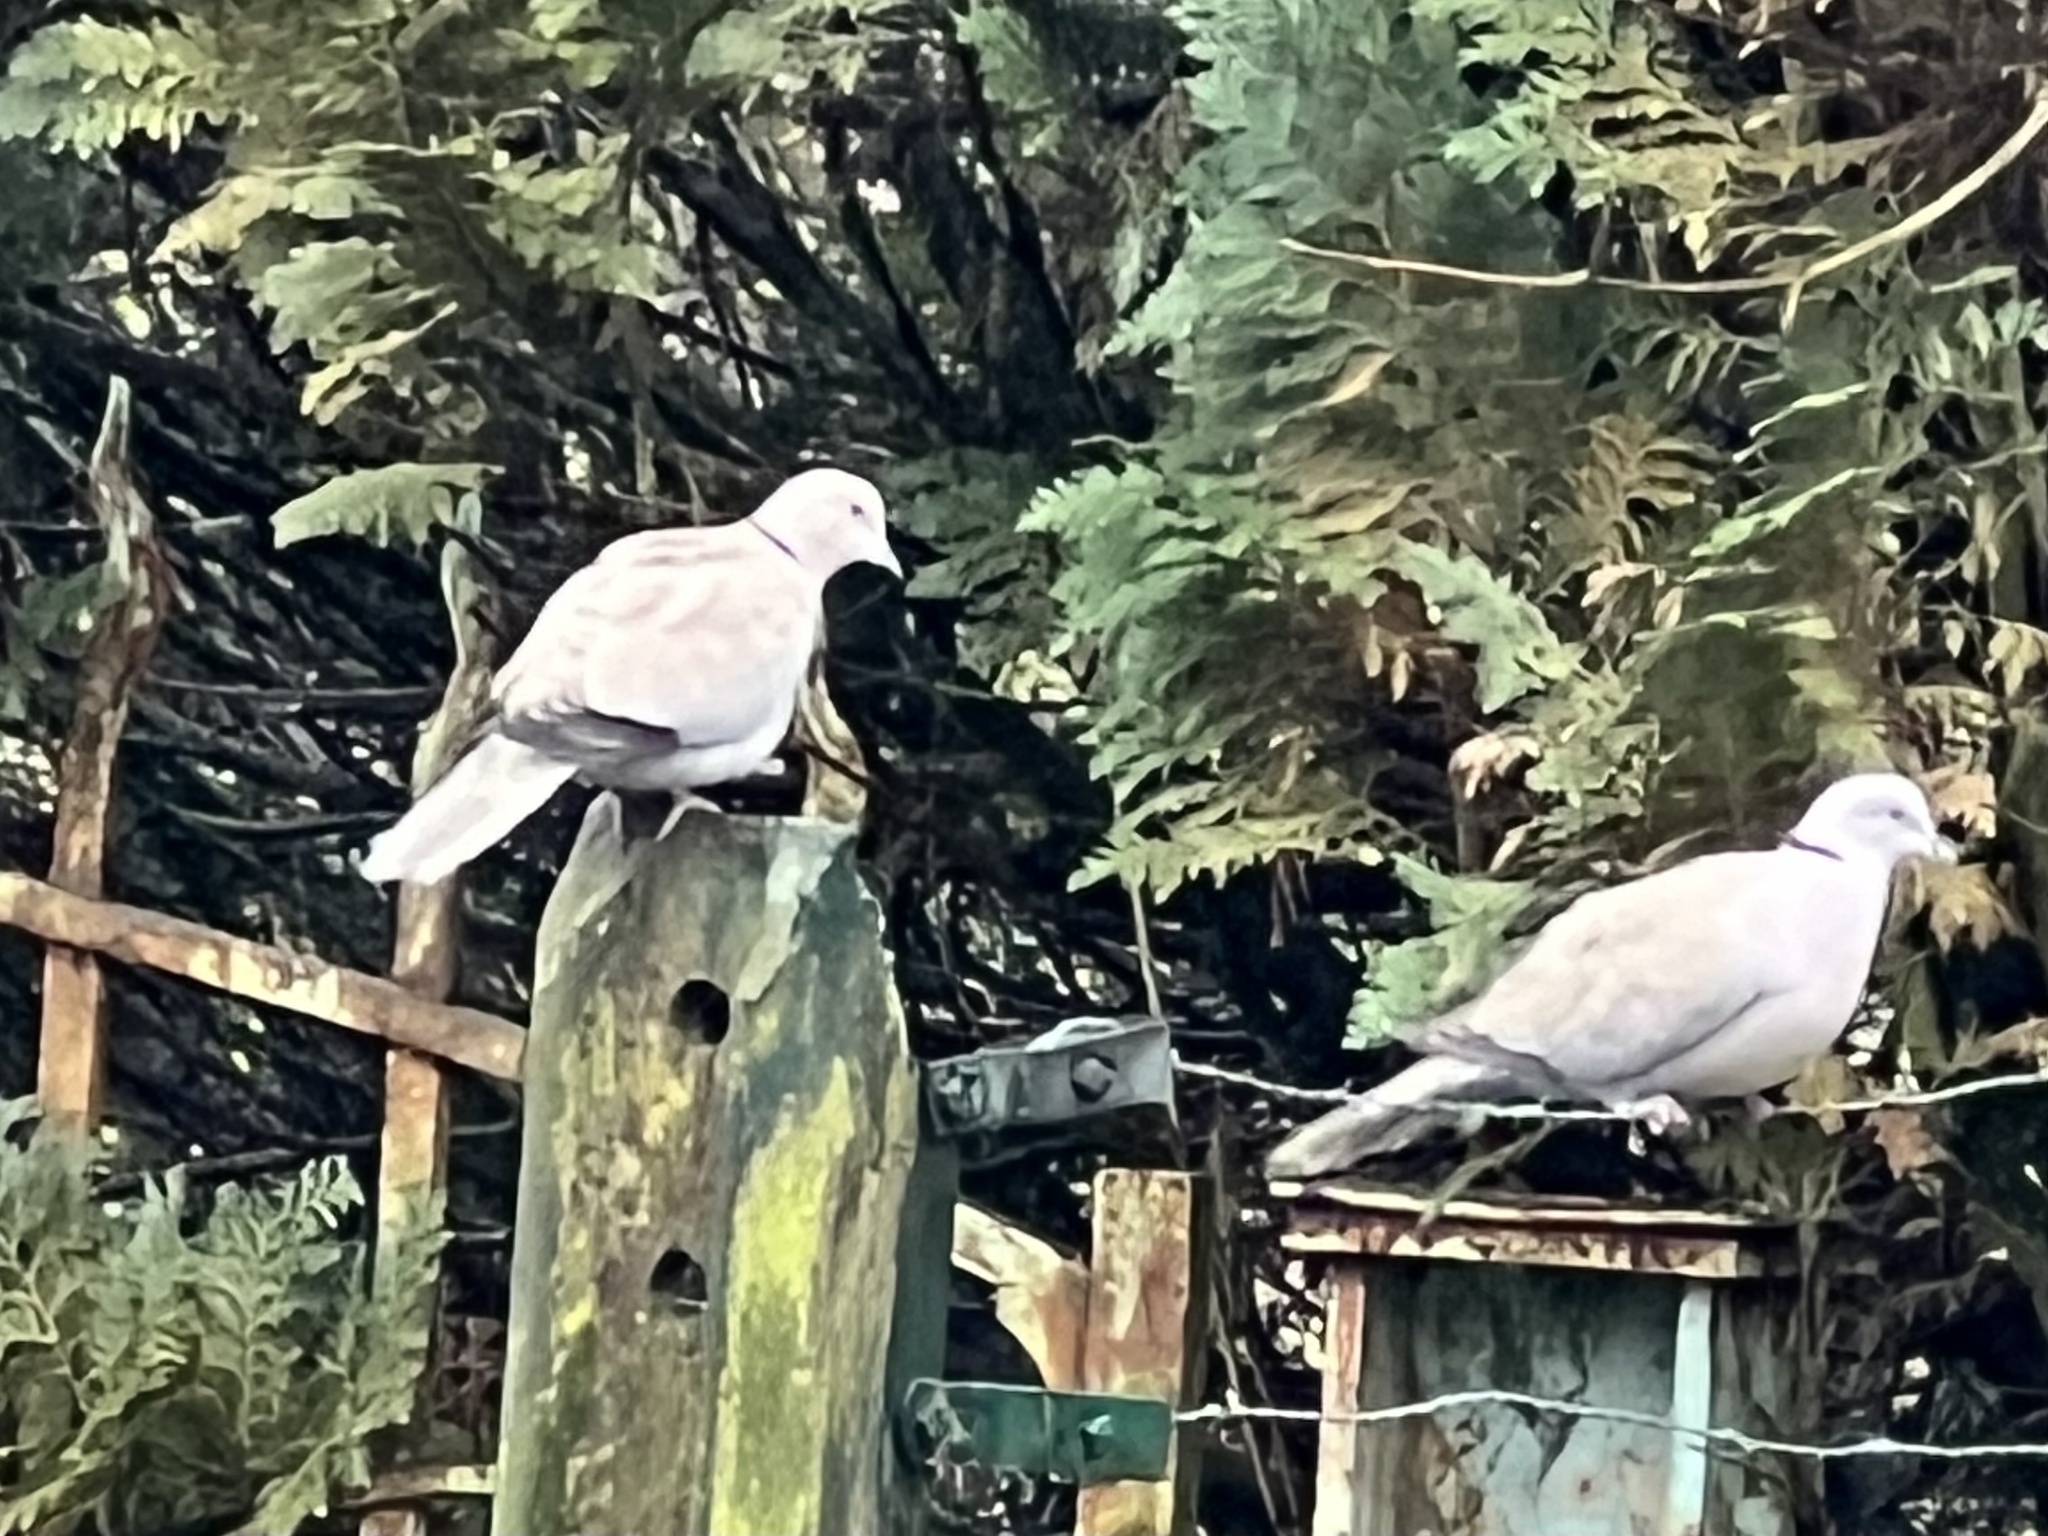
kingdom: Animalia
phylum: Chordata
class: Aves
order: Columbiformes
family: Columbidae
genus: Streptopelia
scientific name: Streptopelia decaocto
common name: Eurasian collared dove
